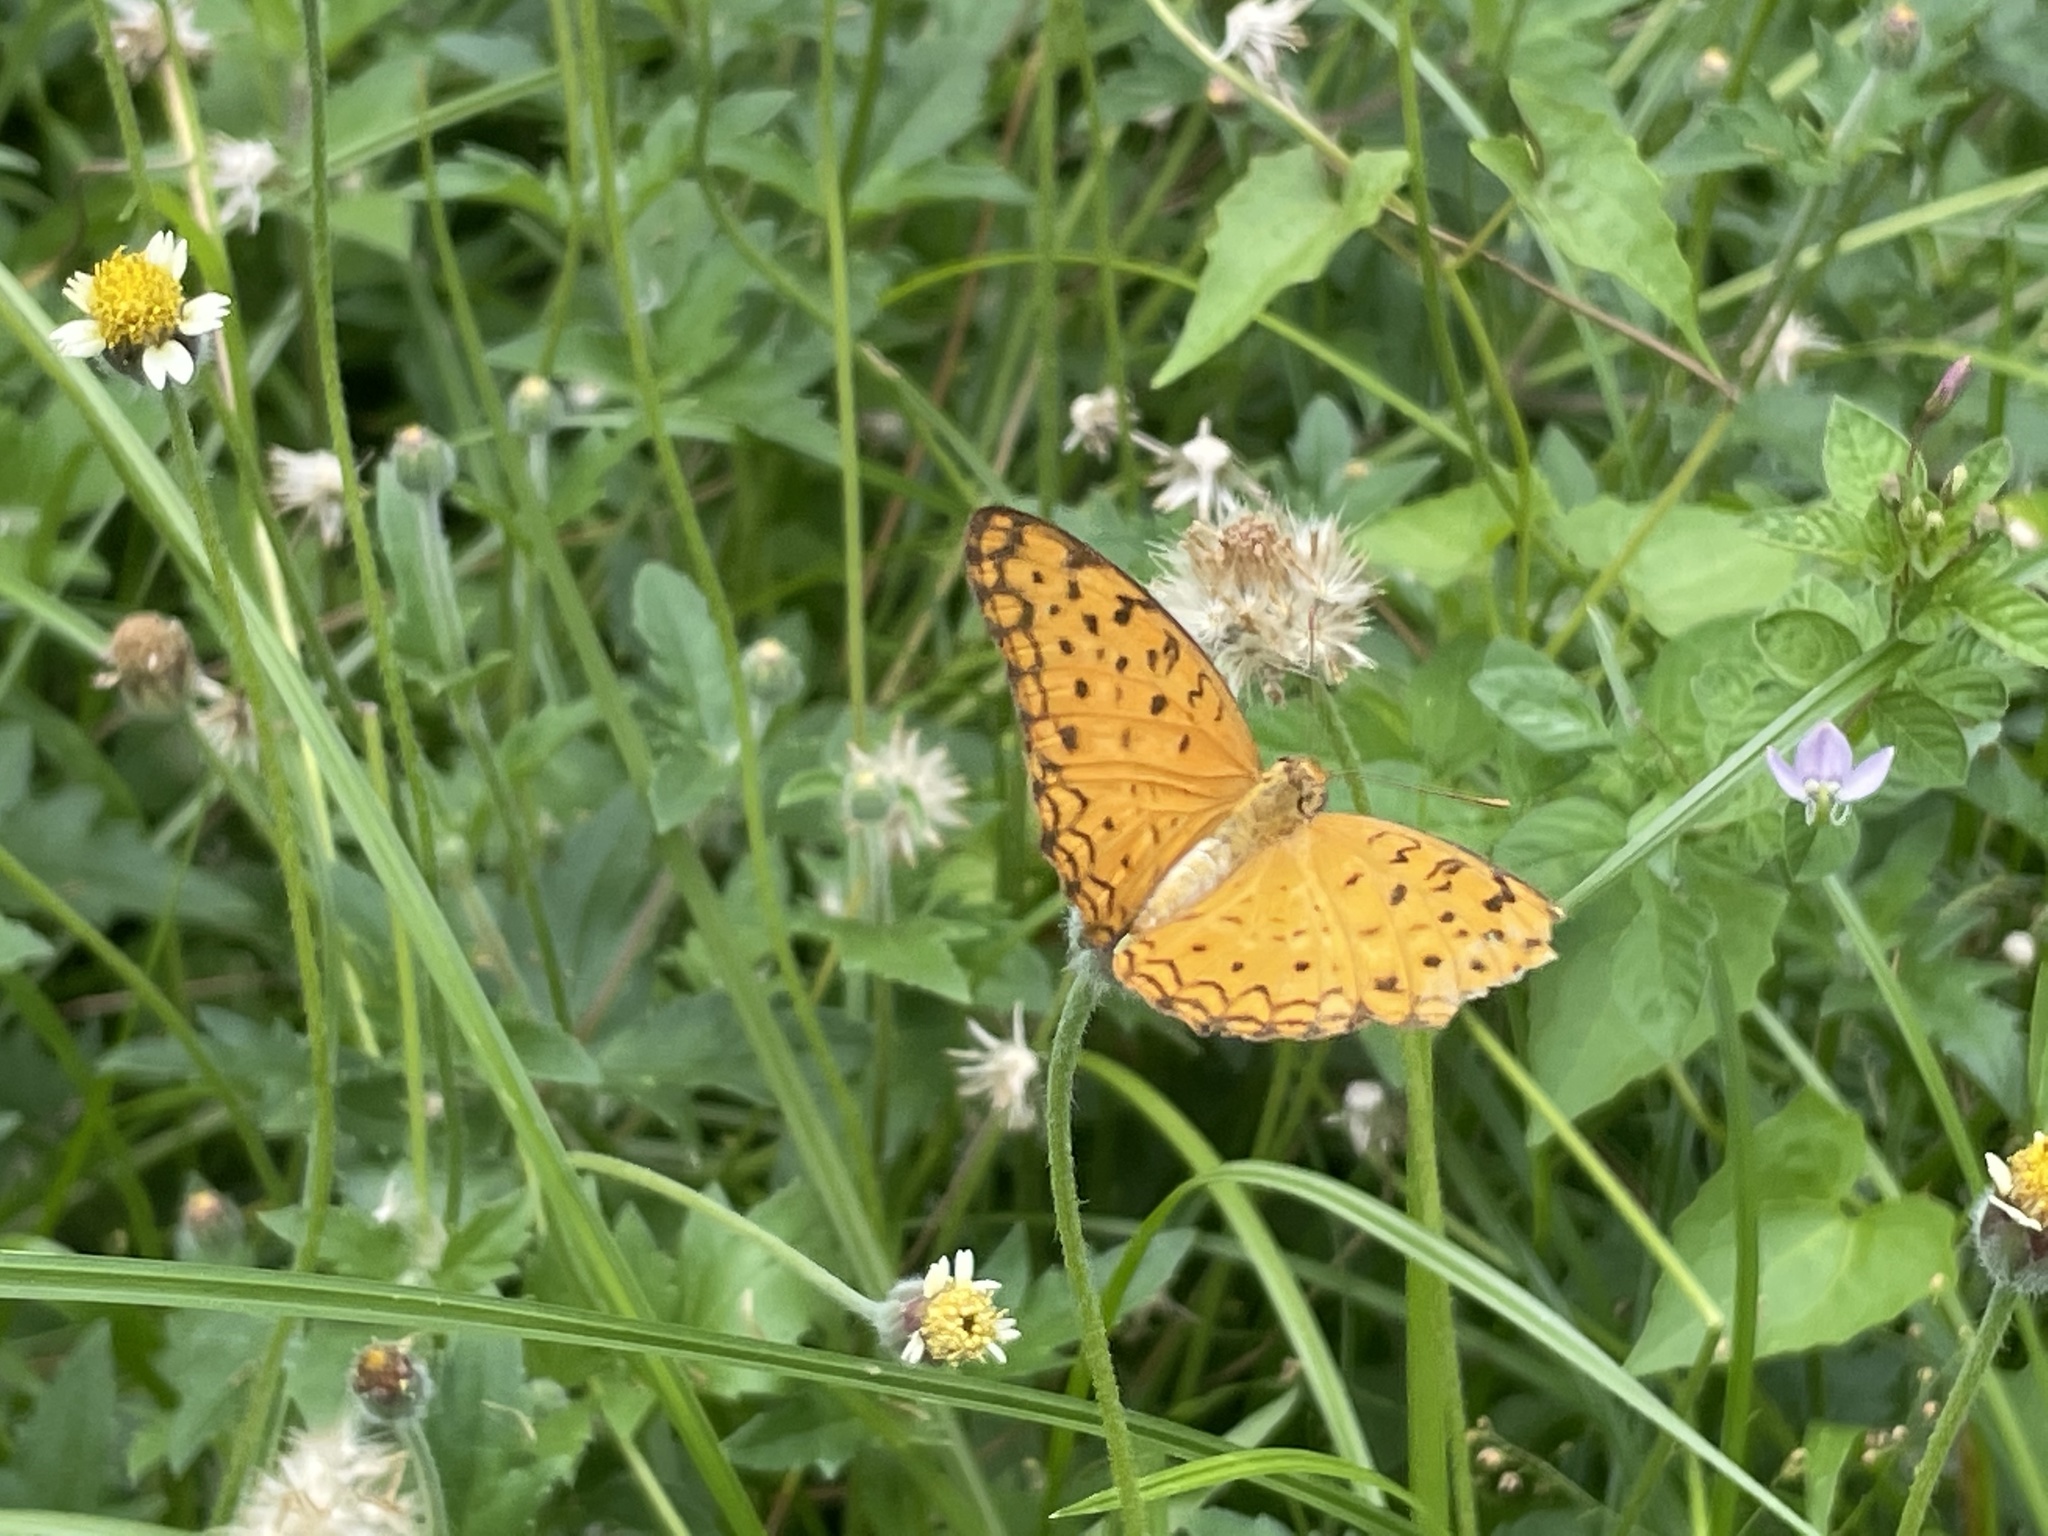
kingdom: Animalia
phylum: Arthropoda
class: Insecta
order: Lepidoptera
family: Nymphalidae
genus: Phalanta
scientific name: Phalanta phalantha
